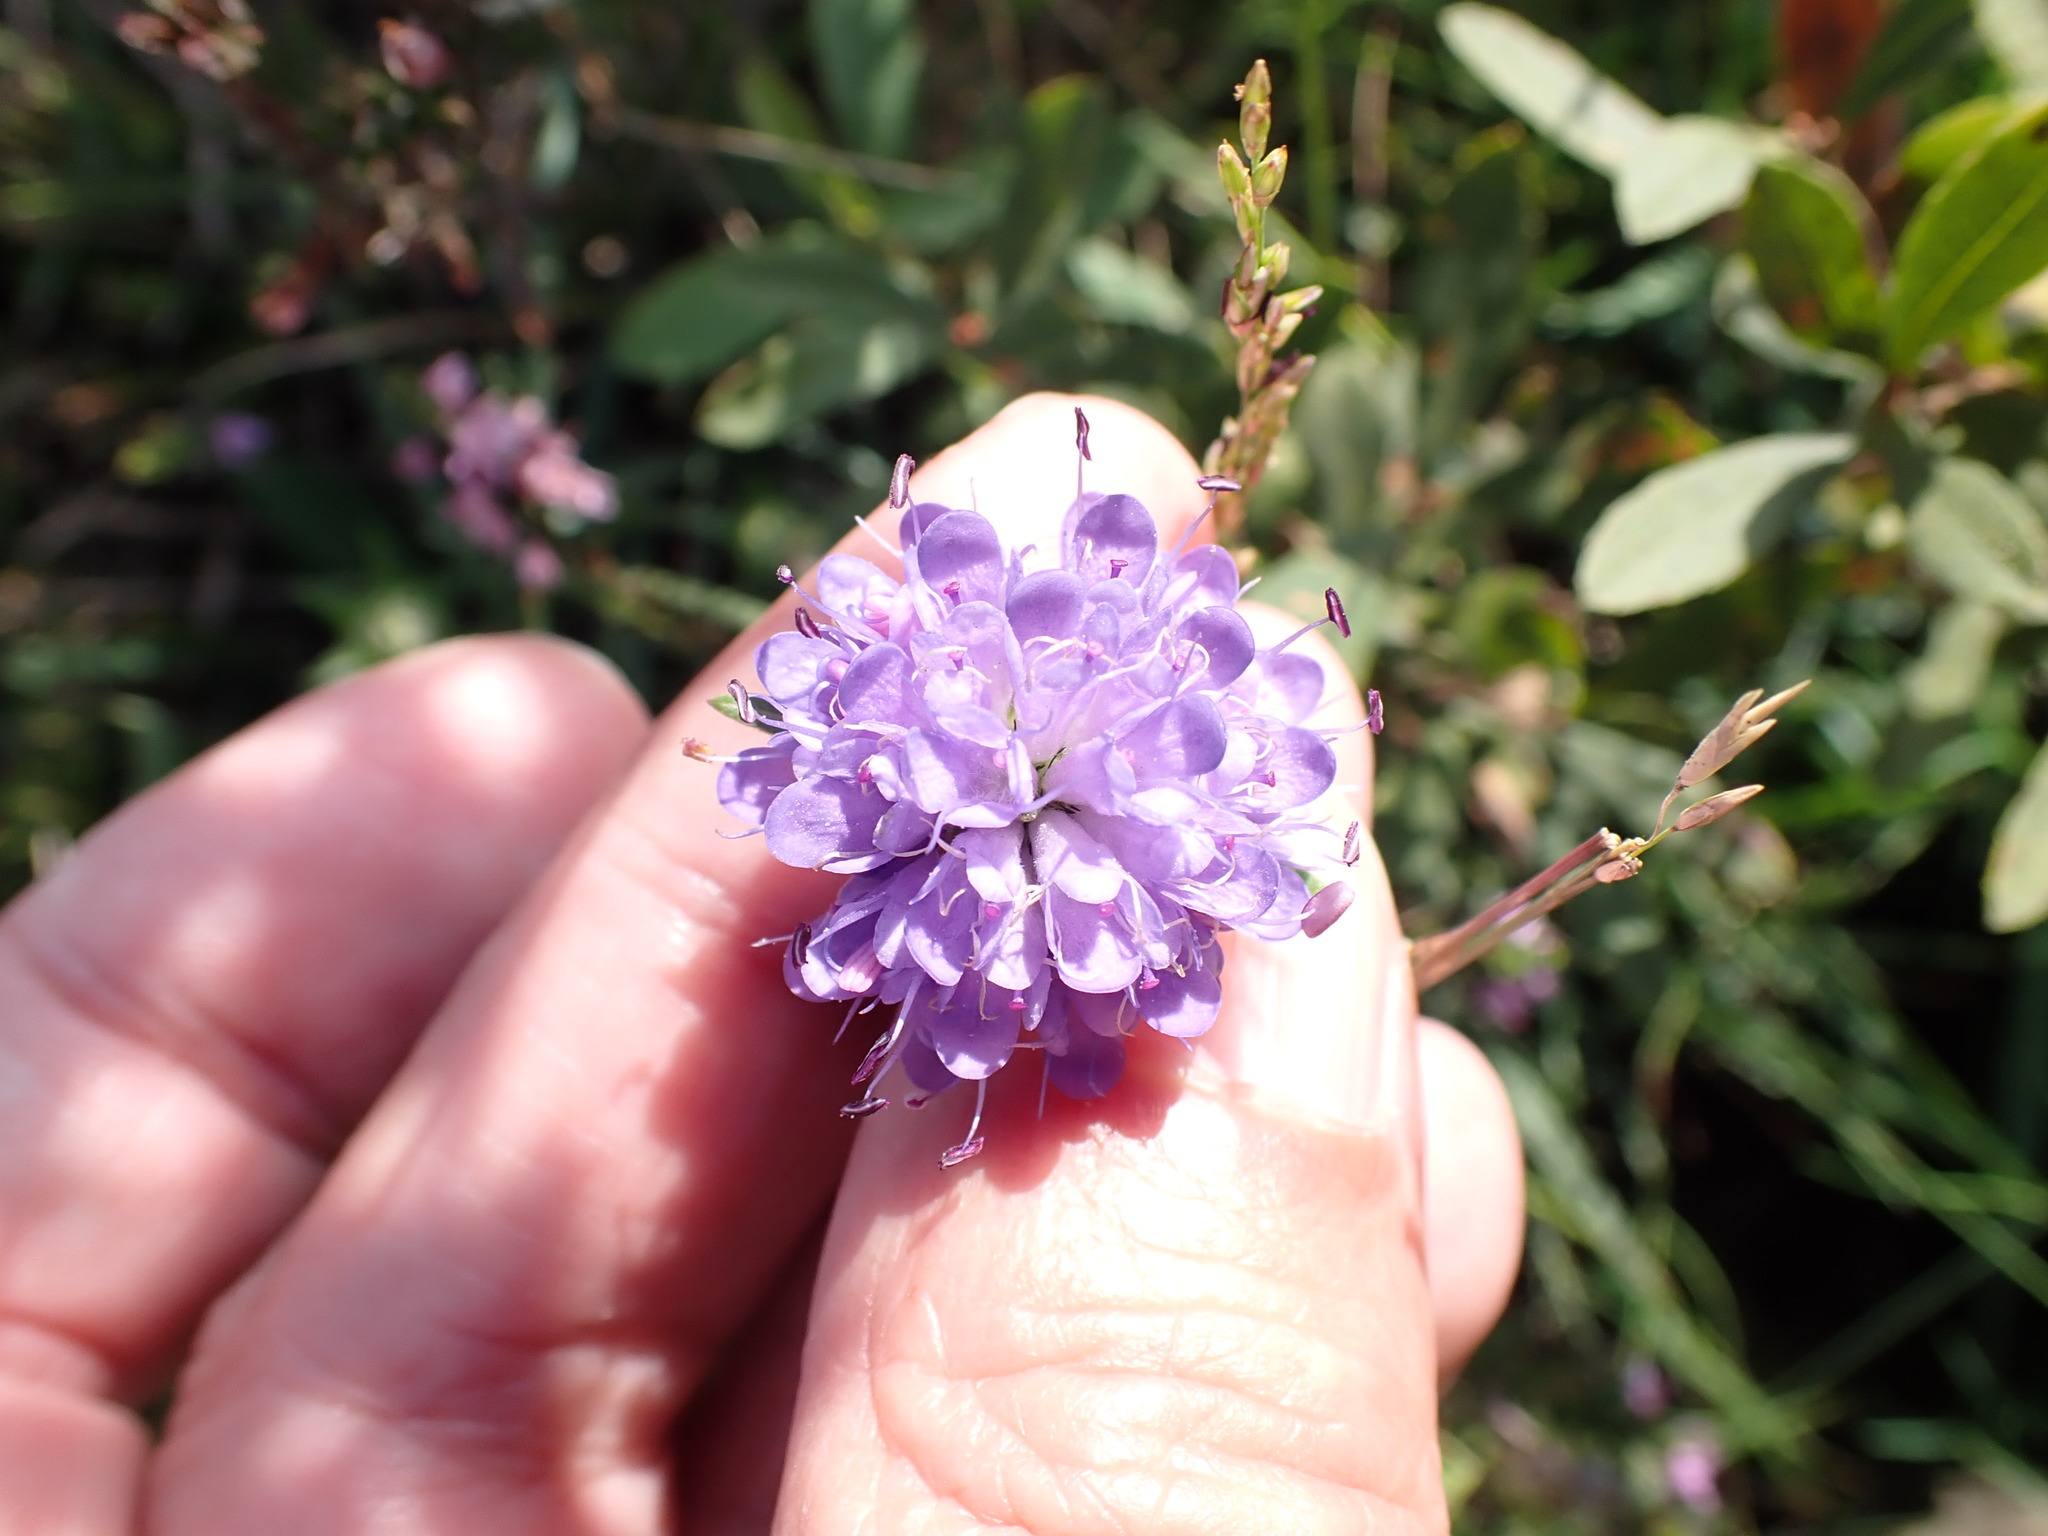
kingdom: Plantae
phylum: Tracheophyta
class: Magnoliopsida
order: Dipsacales
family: Caprifoliaceae
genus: Succisa
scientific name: Succisa pratensis
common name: Devil's-bit
